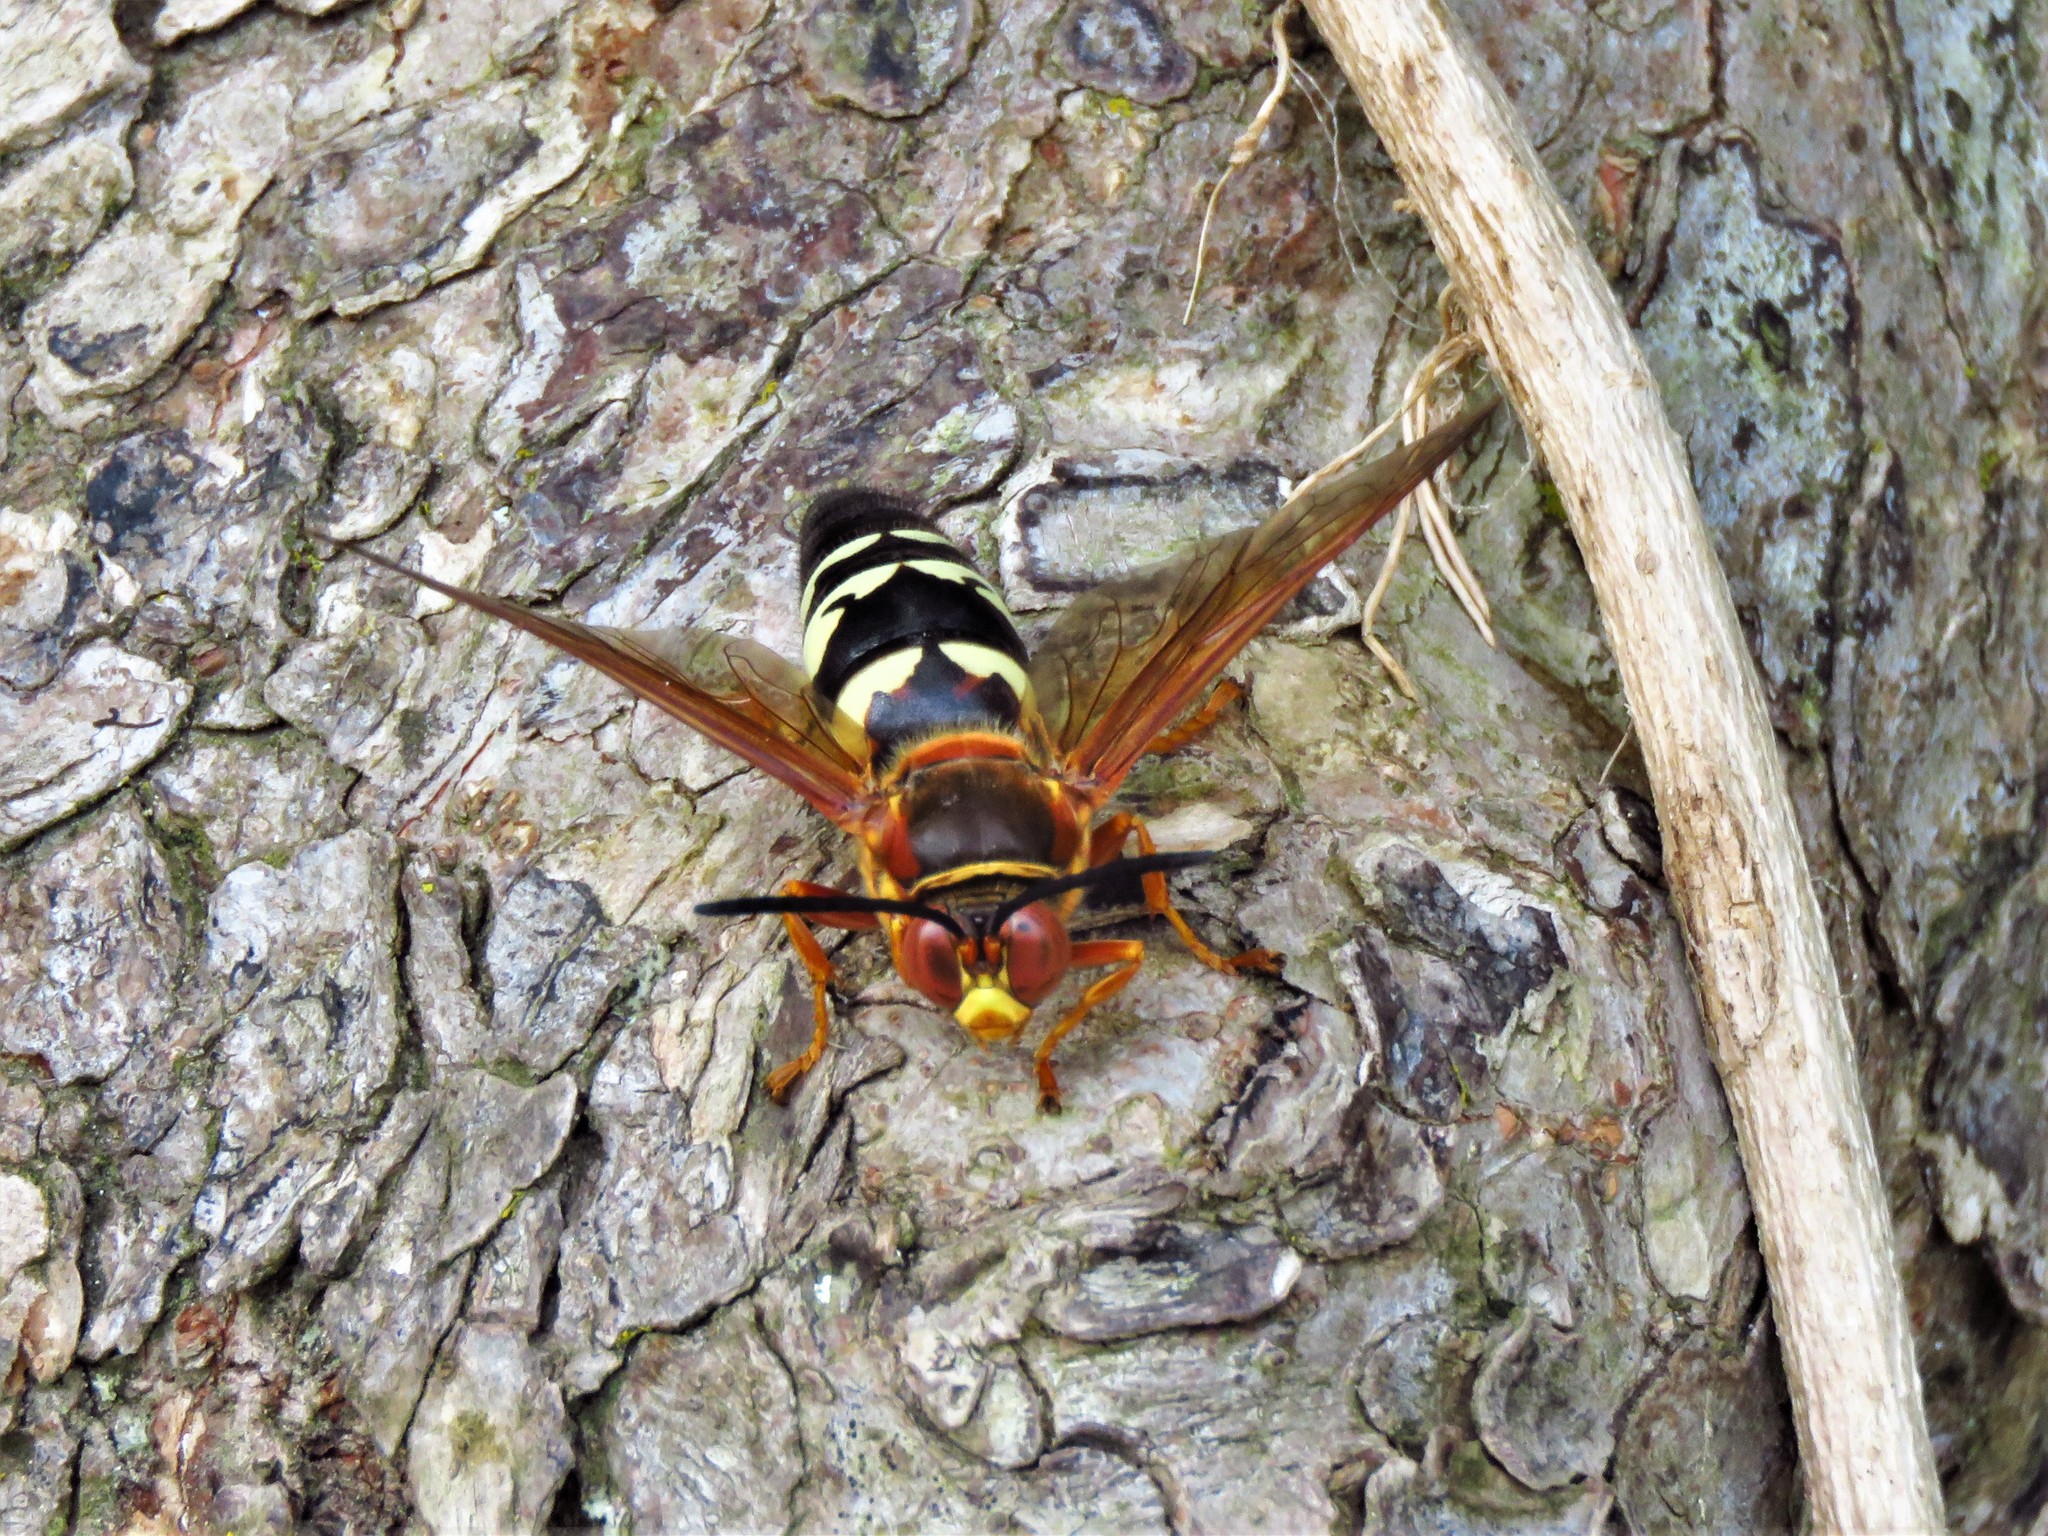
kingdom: Animalia
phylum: Arthropoda
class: Insecta
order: Hymenoptera
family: Crabronidae
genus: Sphecius
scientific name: Sphecius speciosus
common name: Cicada killer
